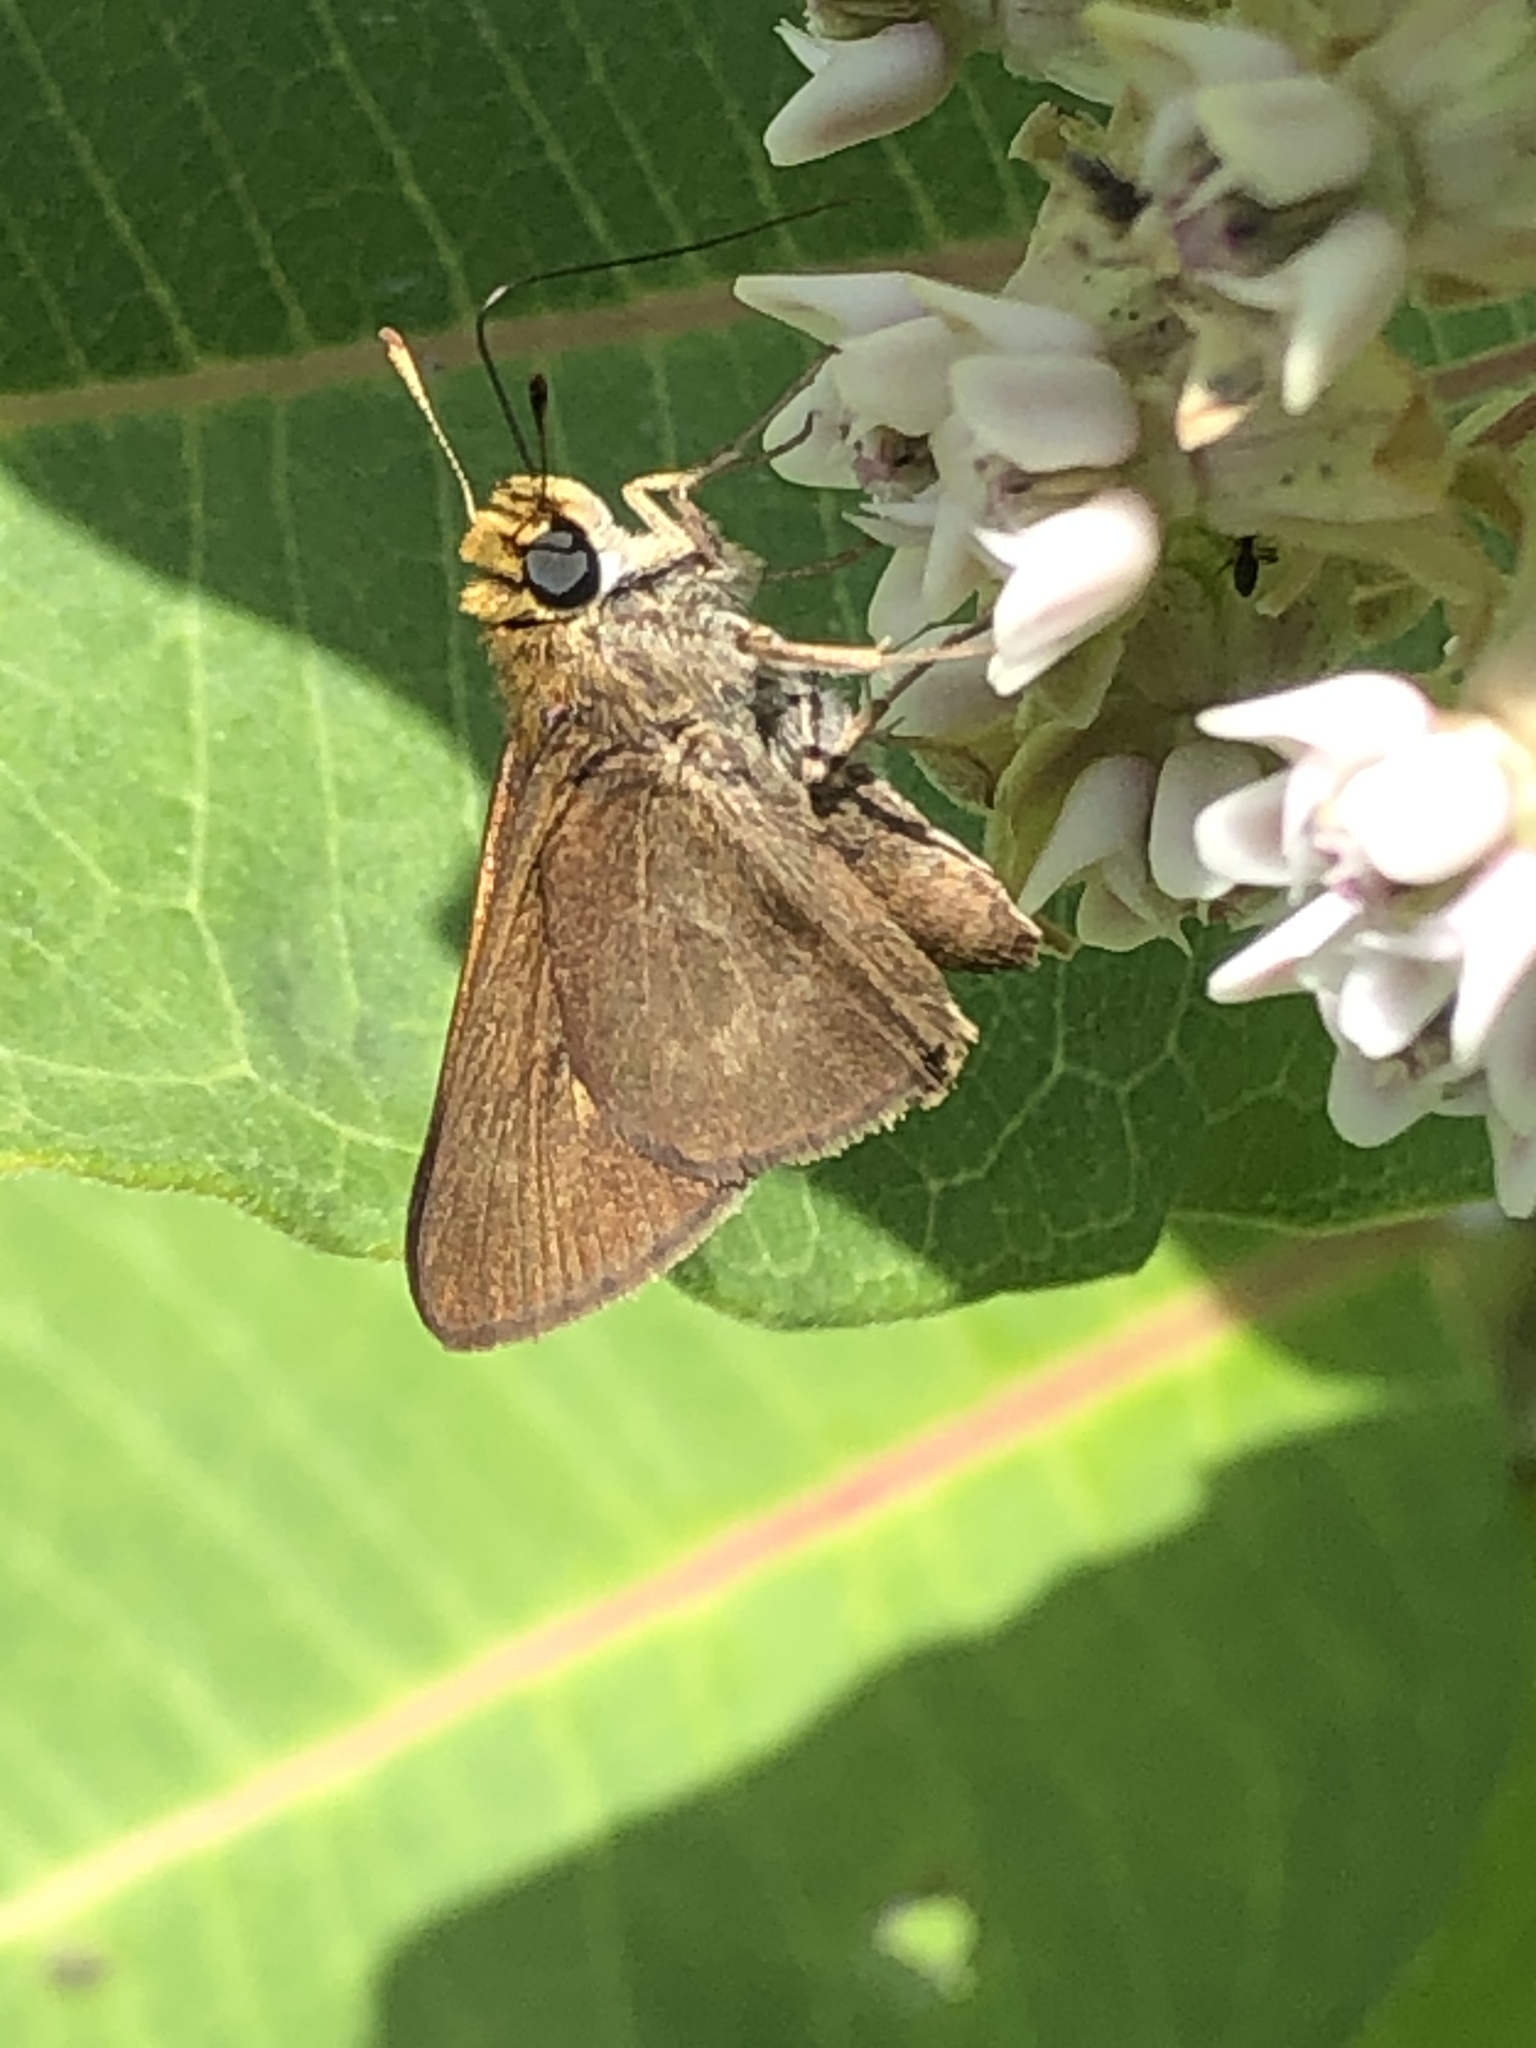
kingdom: Animalia
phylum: Arthropoda
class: Insecta
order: Lepidoptera
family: Hesperiidae
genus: Euphyes
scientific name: Euphyes vestris
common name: Dun skipper
